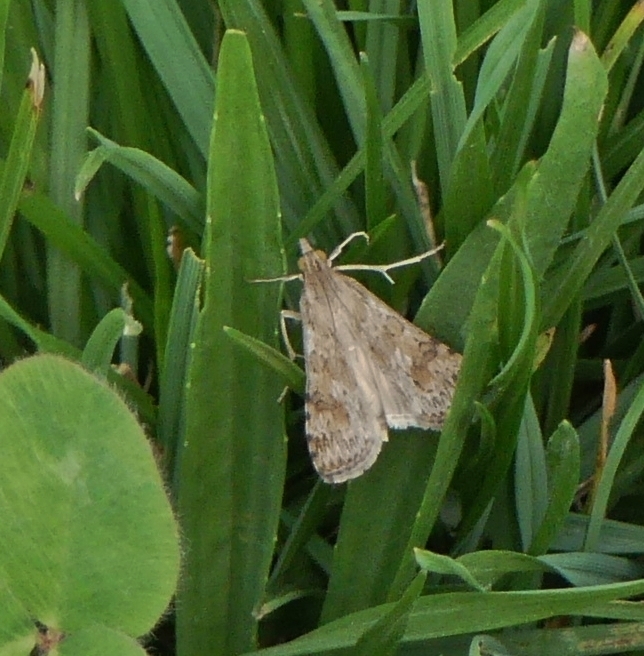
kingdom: Animalia
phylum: Arthropoda
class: Insecta
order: Lepidoptera
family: Crambidae
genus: Nomophila
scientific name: Nomophila nearctica
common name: American rush veneer
